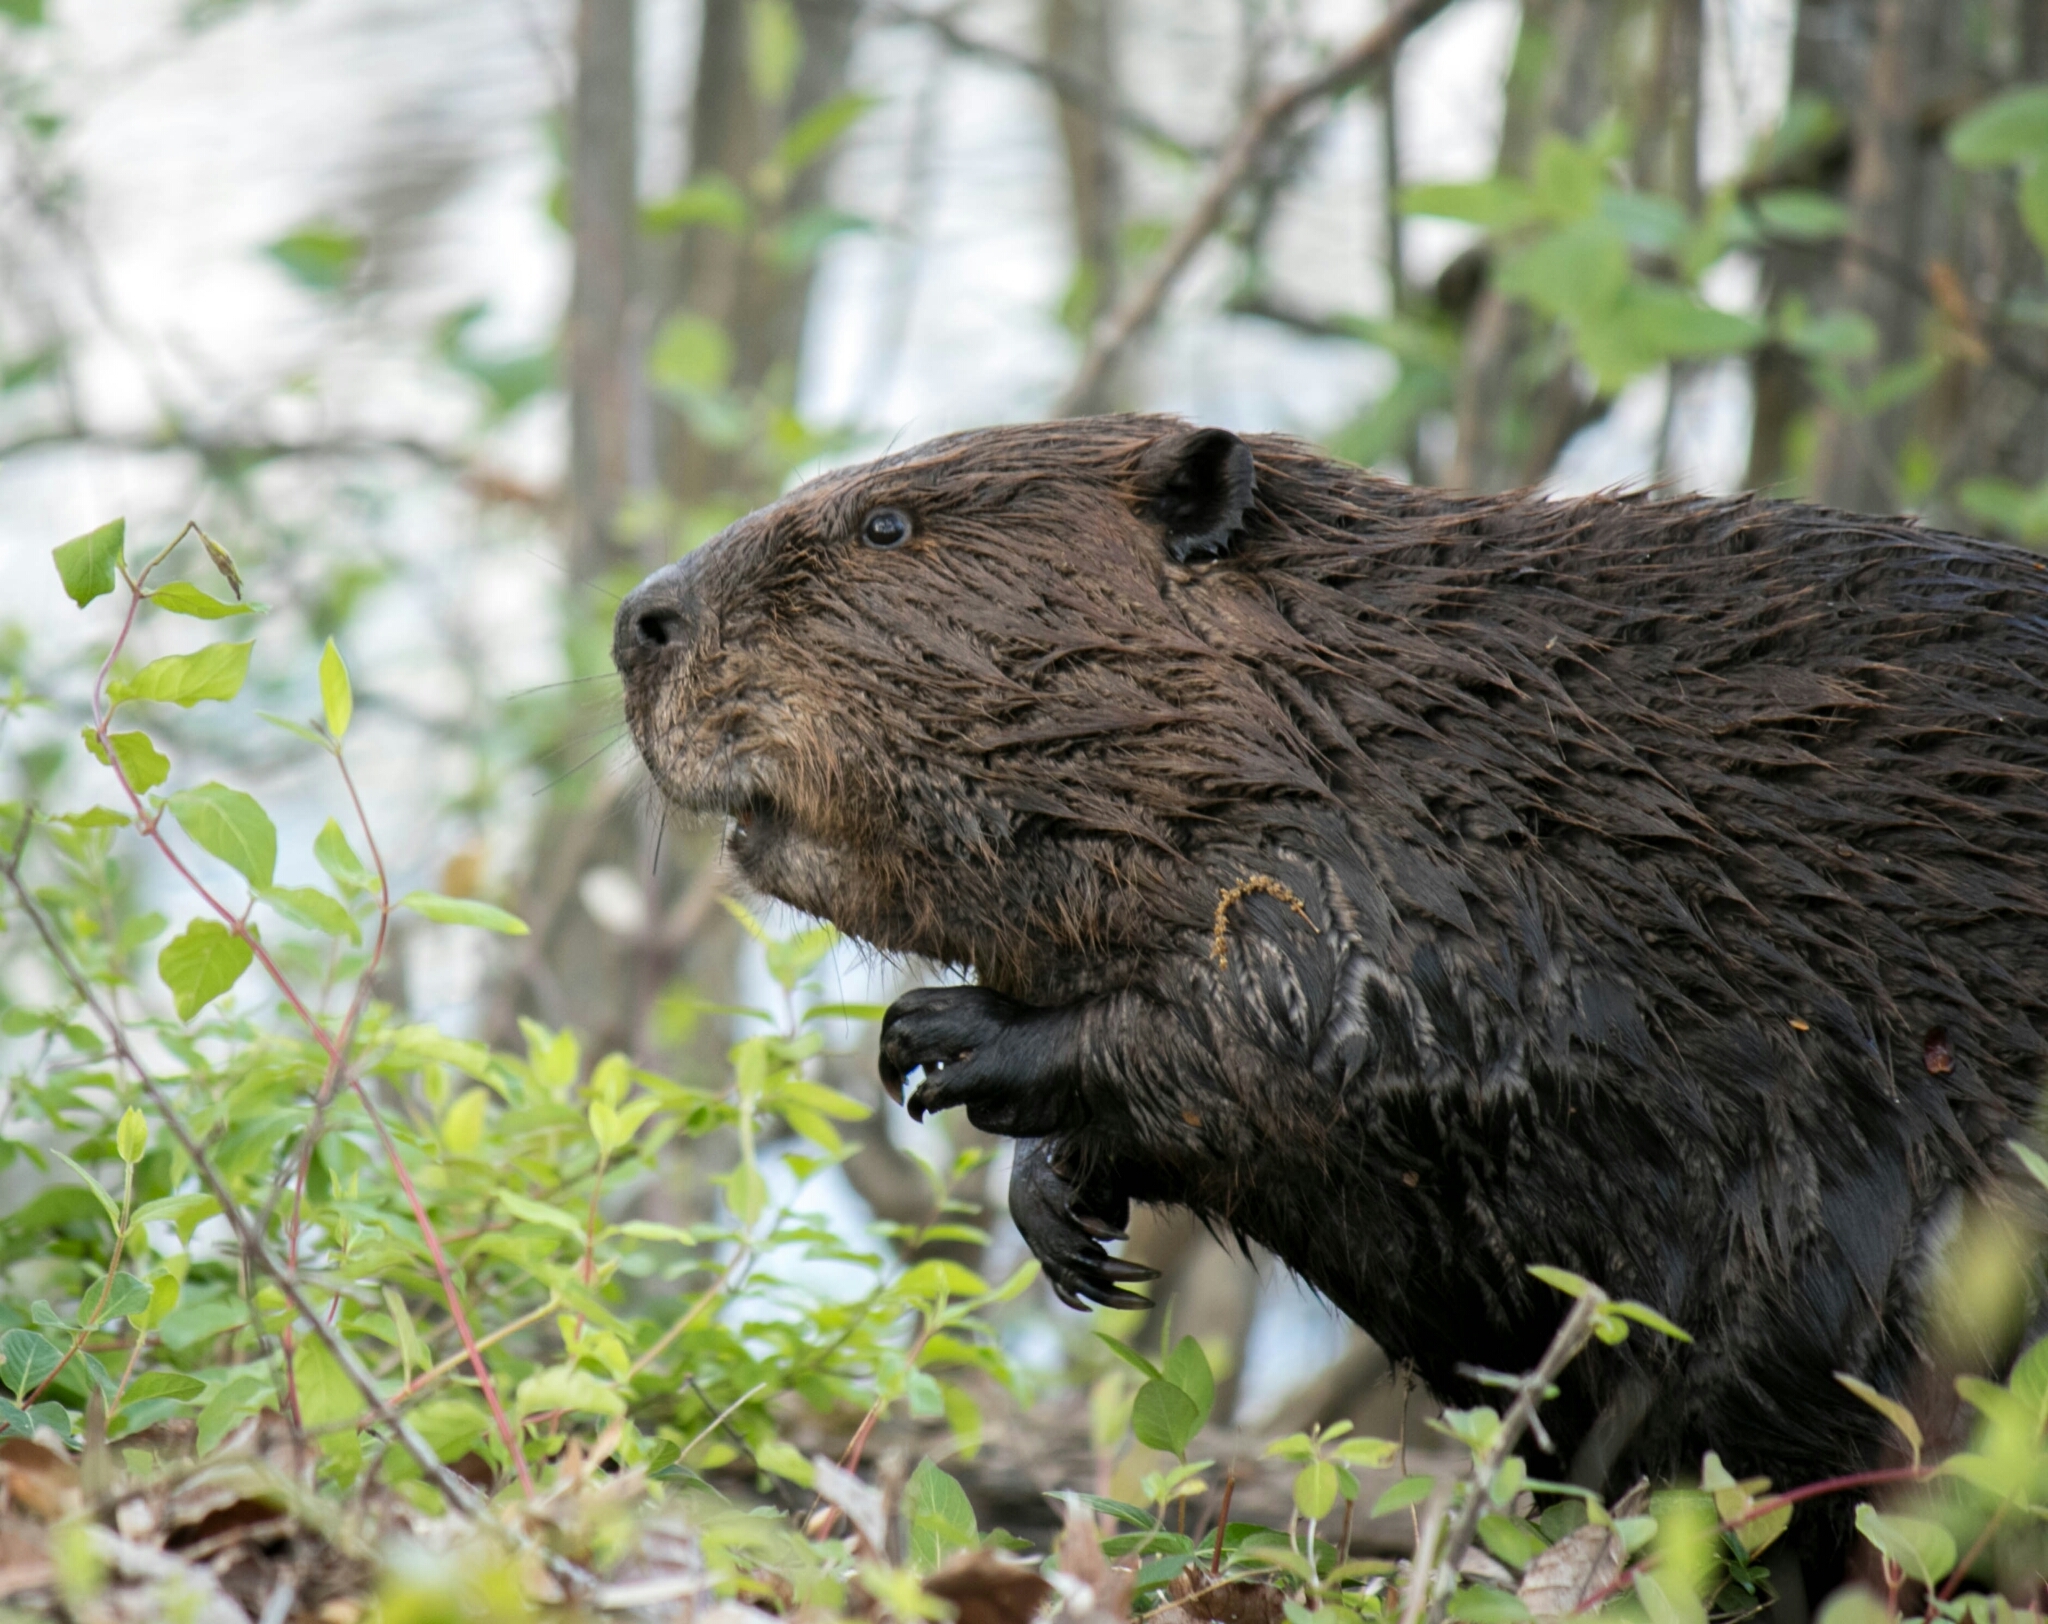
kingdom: Animalia
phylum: Chordata
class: Mammalia
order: Rodentia
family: Castoridae
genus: Castor
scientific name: Castor canadensis
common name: American beaver
